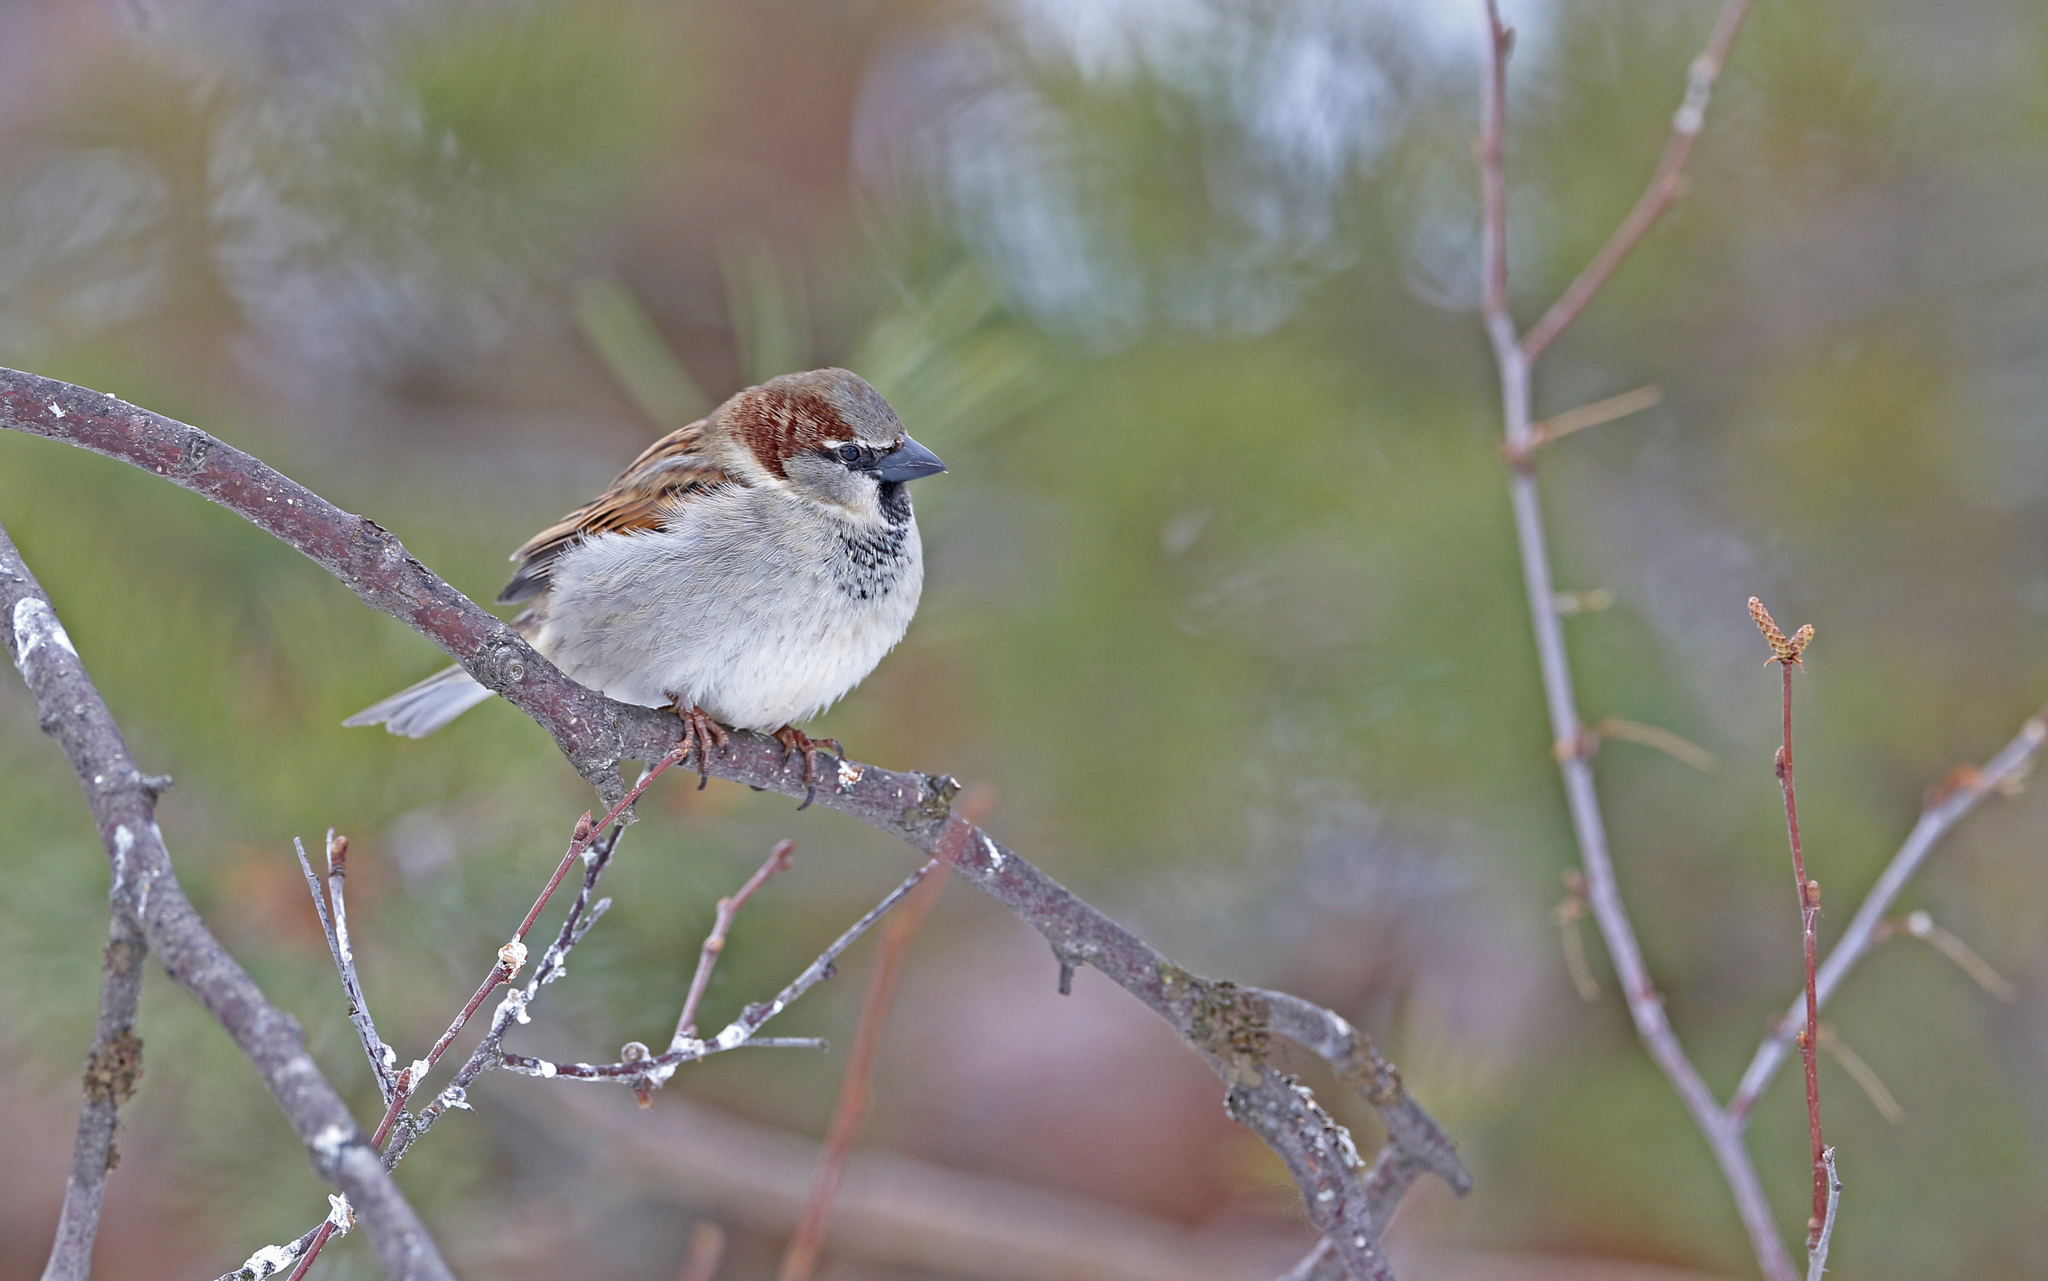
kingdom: Animalia
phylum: Chordata
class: Aves
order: Passeriformes
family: Passeridae
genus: Passer
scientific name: Passer domesticus
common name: House sparrow
